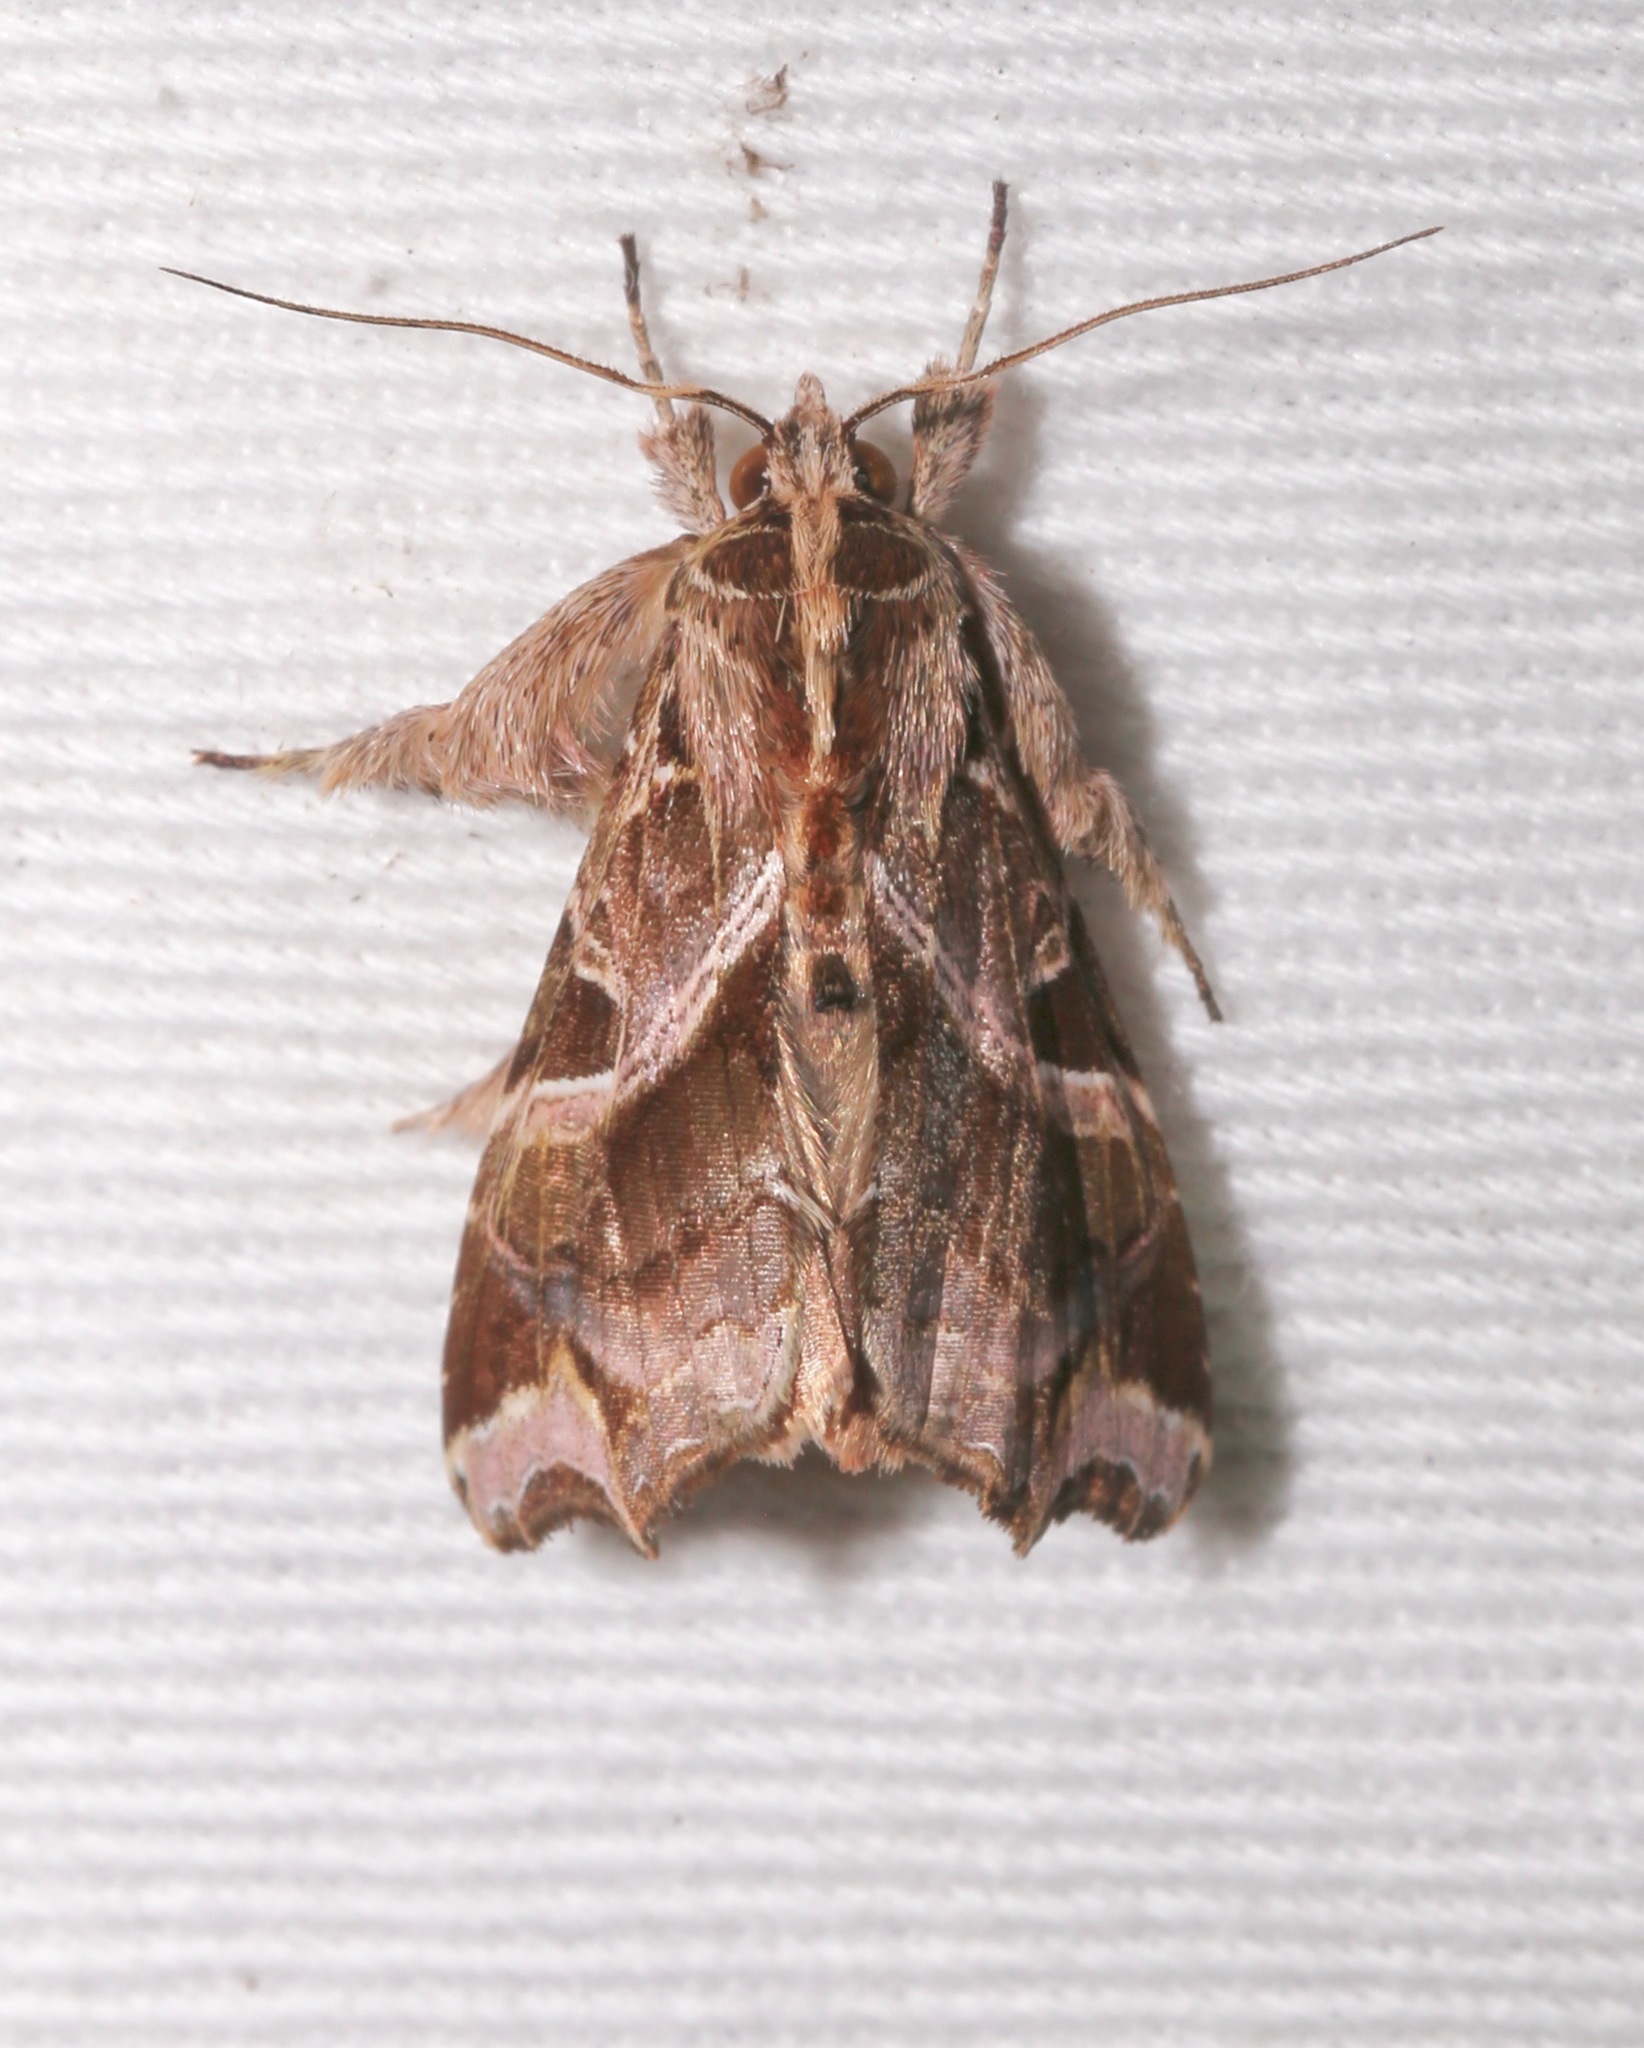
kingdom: Animalia
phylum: Arthropoda
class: Insecta
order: Lepidoptera
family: Noctuidae
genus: Callopistria
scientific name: Callopistria floridensis
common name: Florida fern moth
